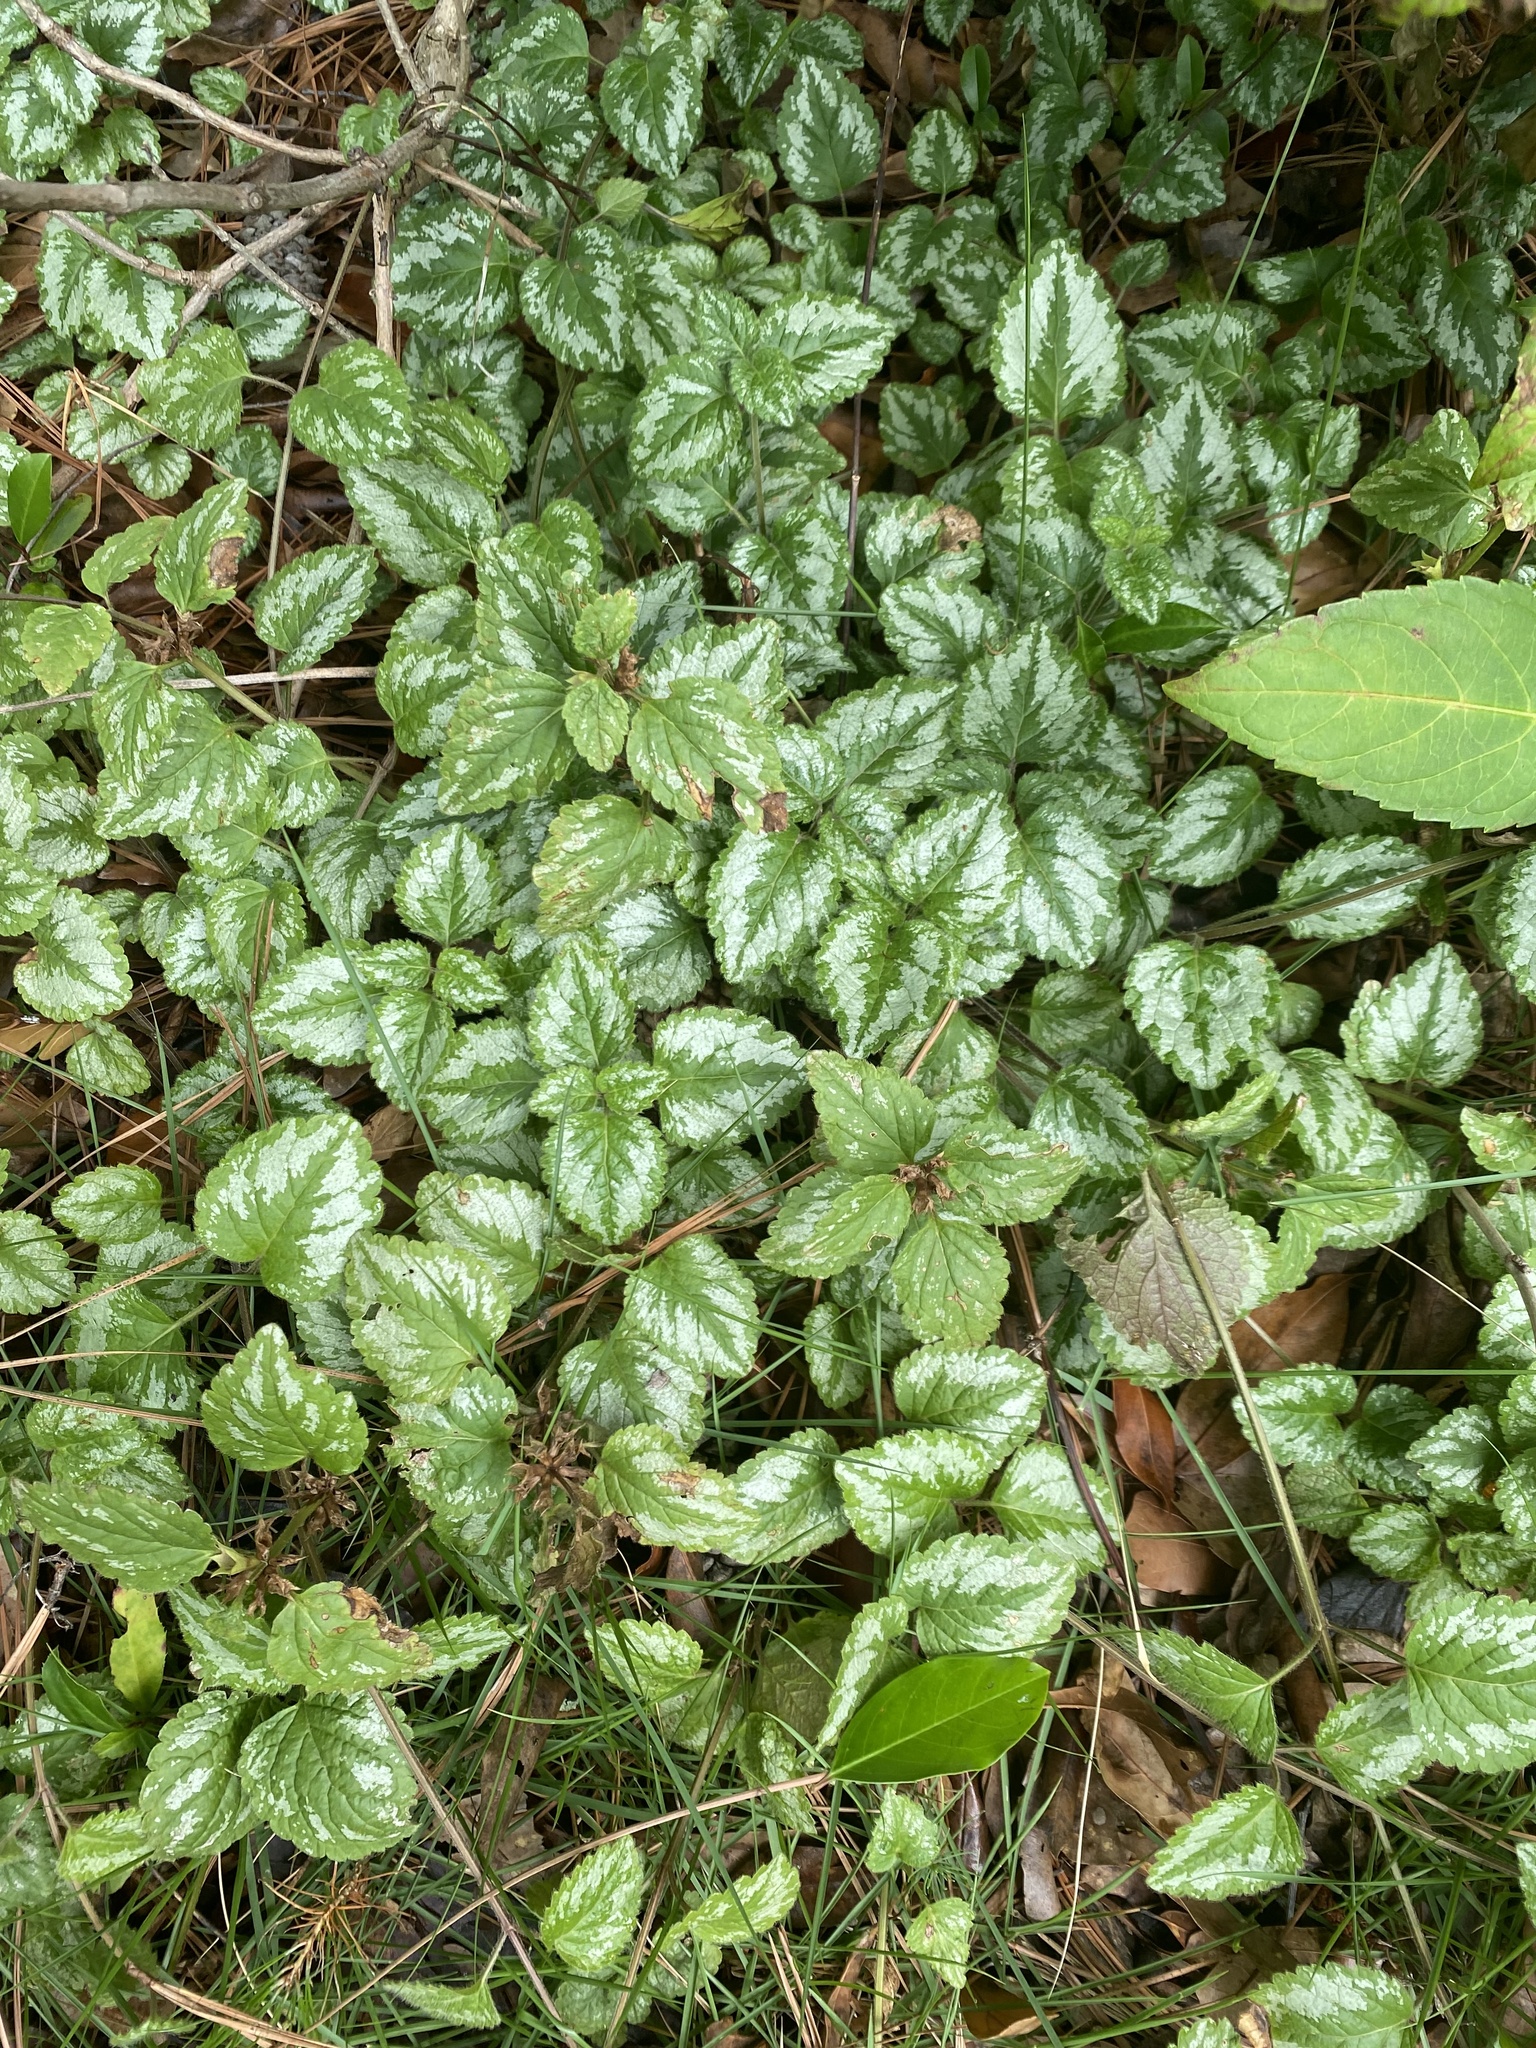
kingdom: Plantae
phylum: Tracheophyta
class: Magnoliopsida
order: Lamiales
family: Lamiaceae
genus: Lamium
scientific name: Lamium galeobdolon
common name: Yellow archangel
